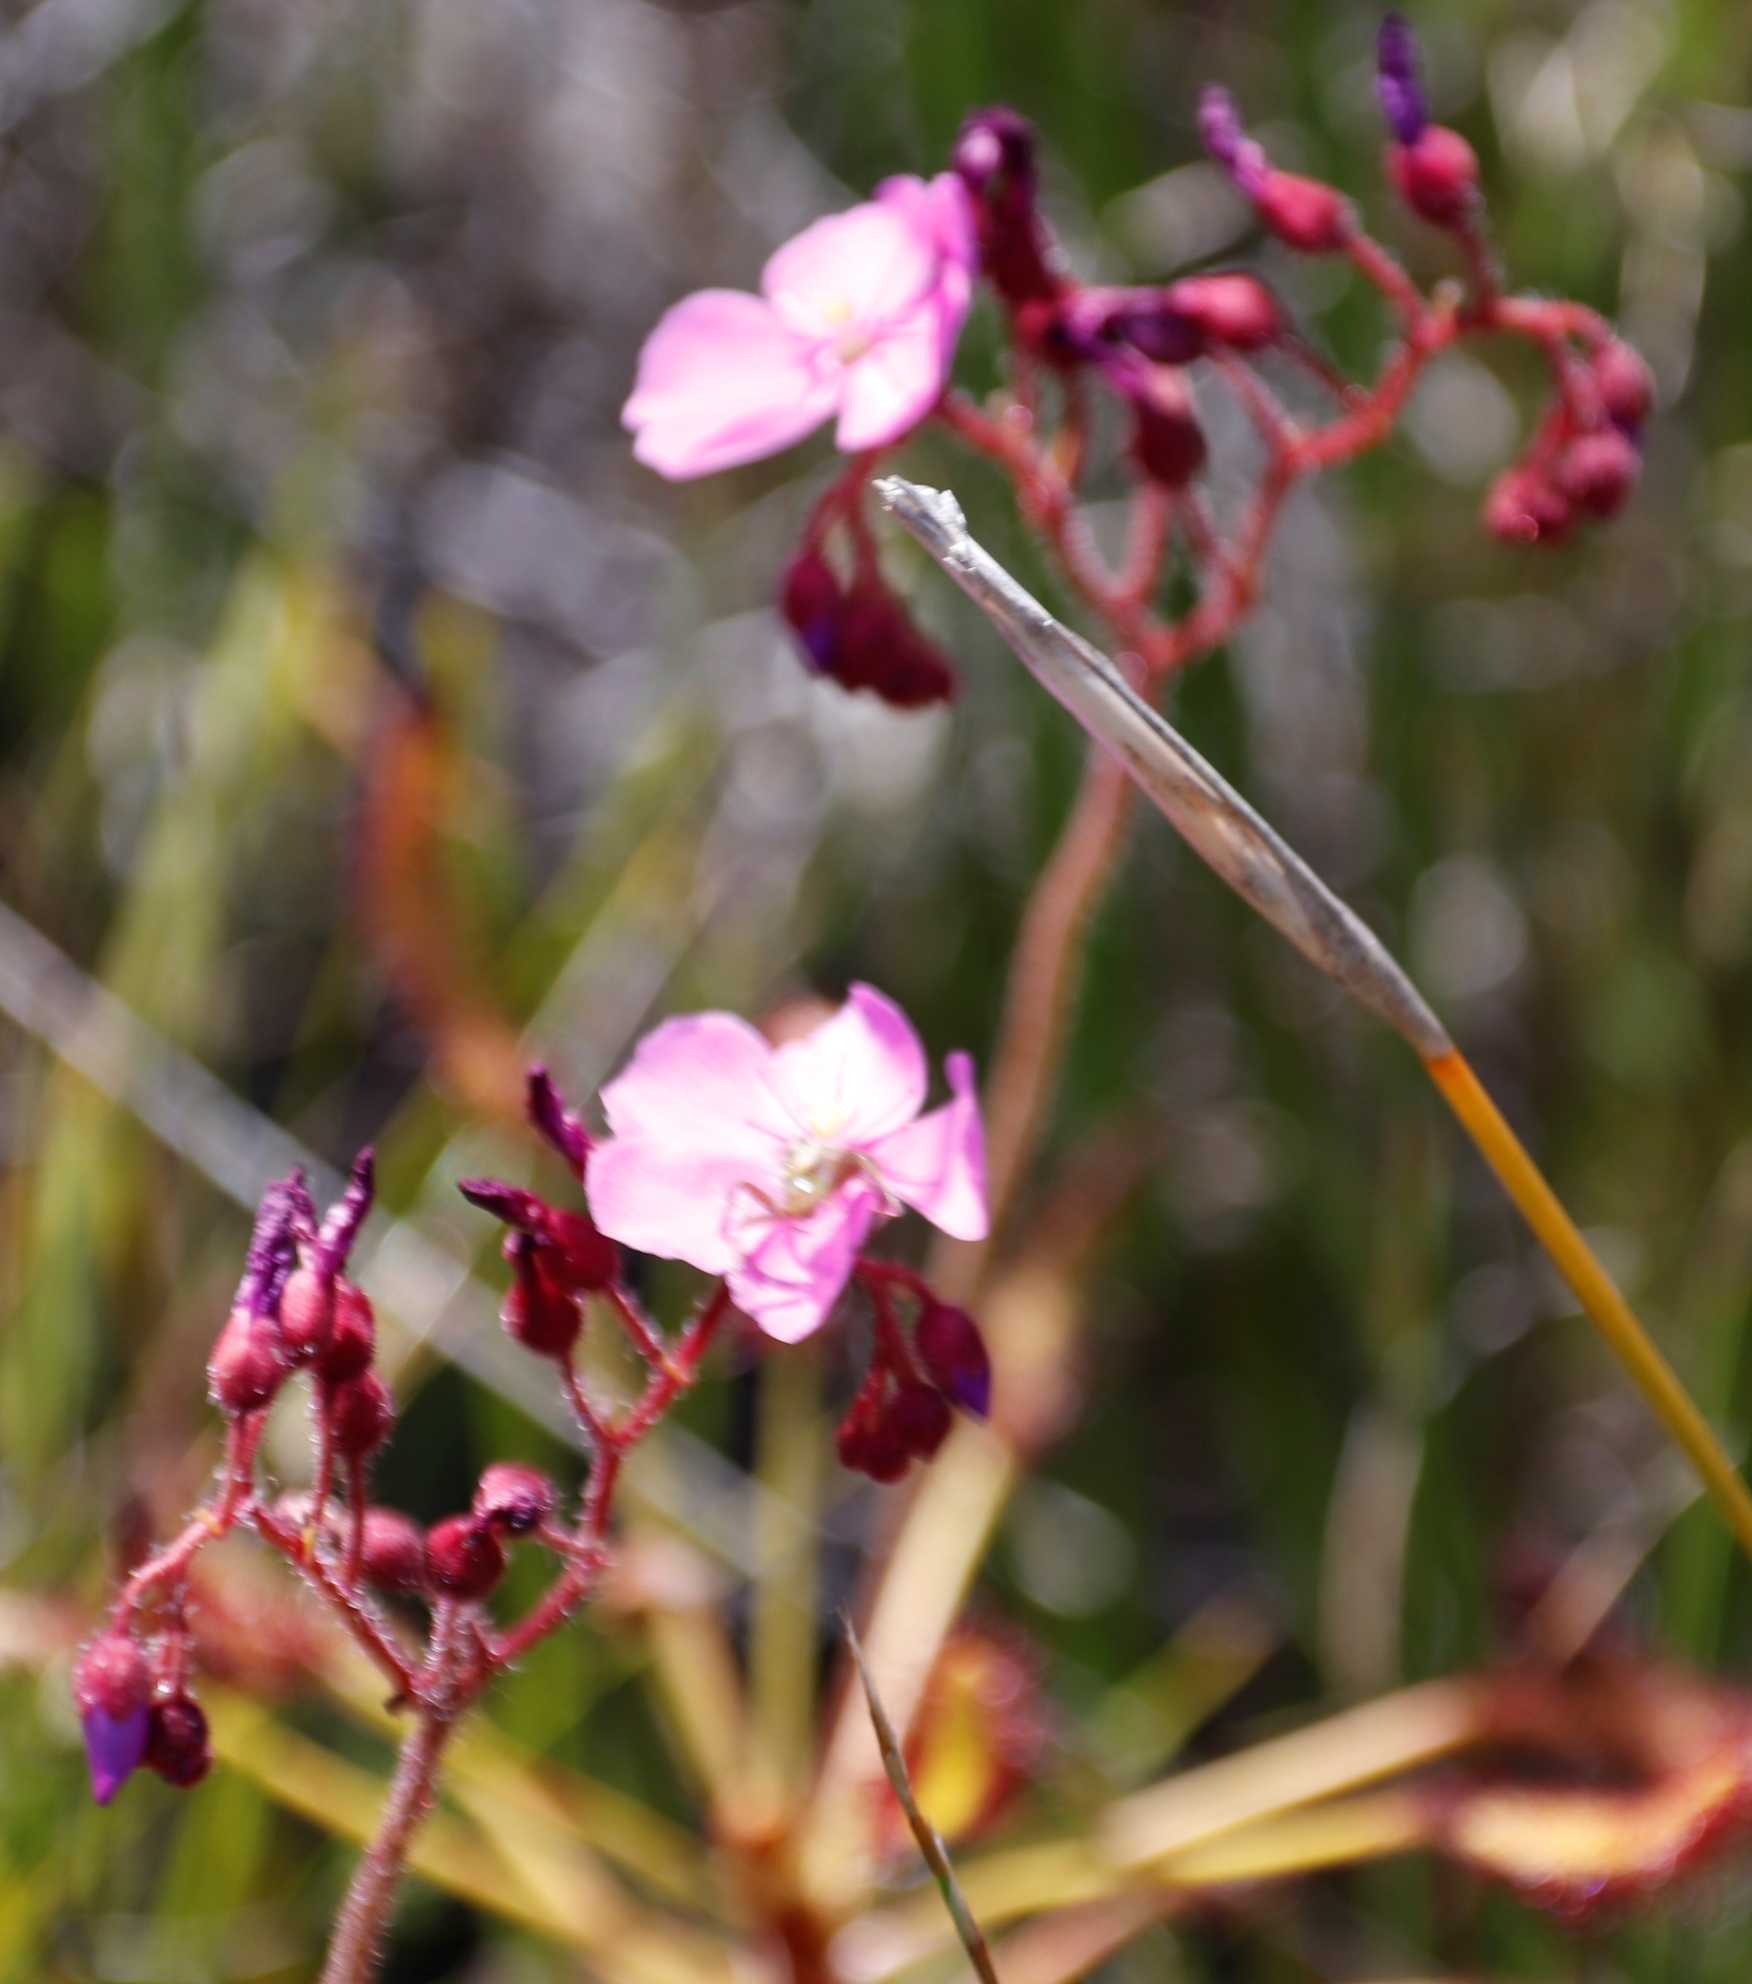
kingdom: Animalia
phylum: Arthropoda
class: Arachnida
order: Araneae
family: Thomisidae
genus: Synema
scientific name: Synema imitatrix
